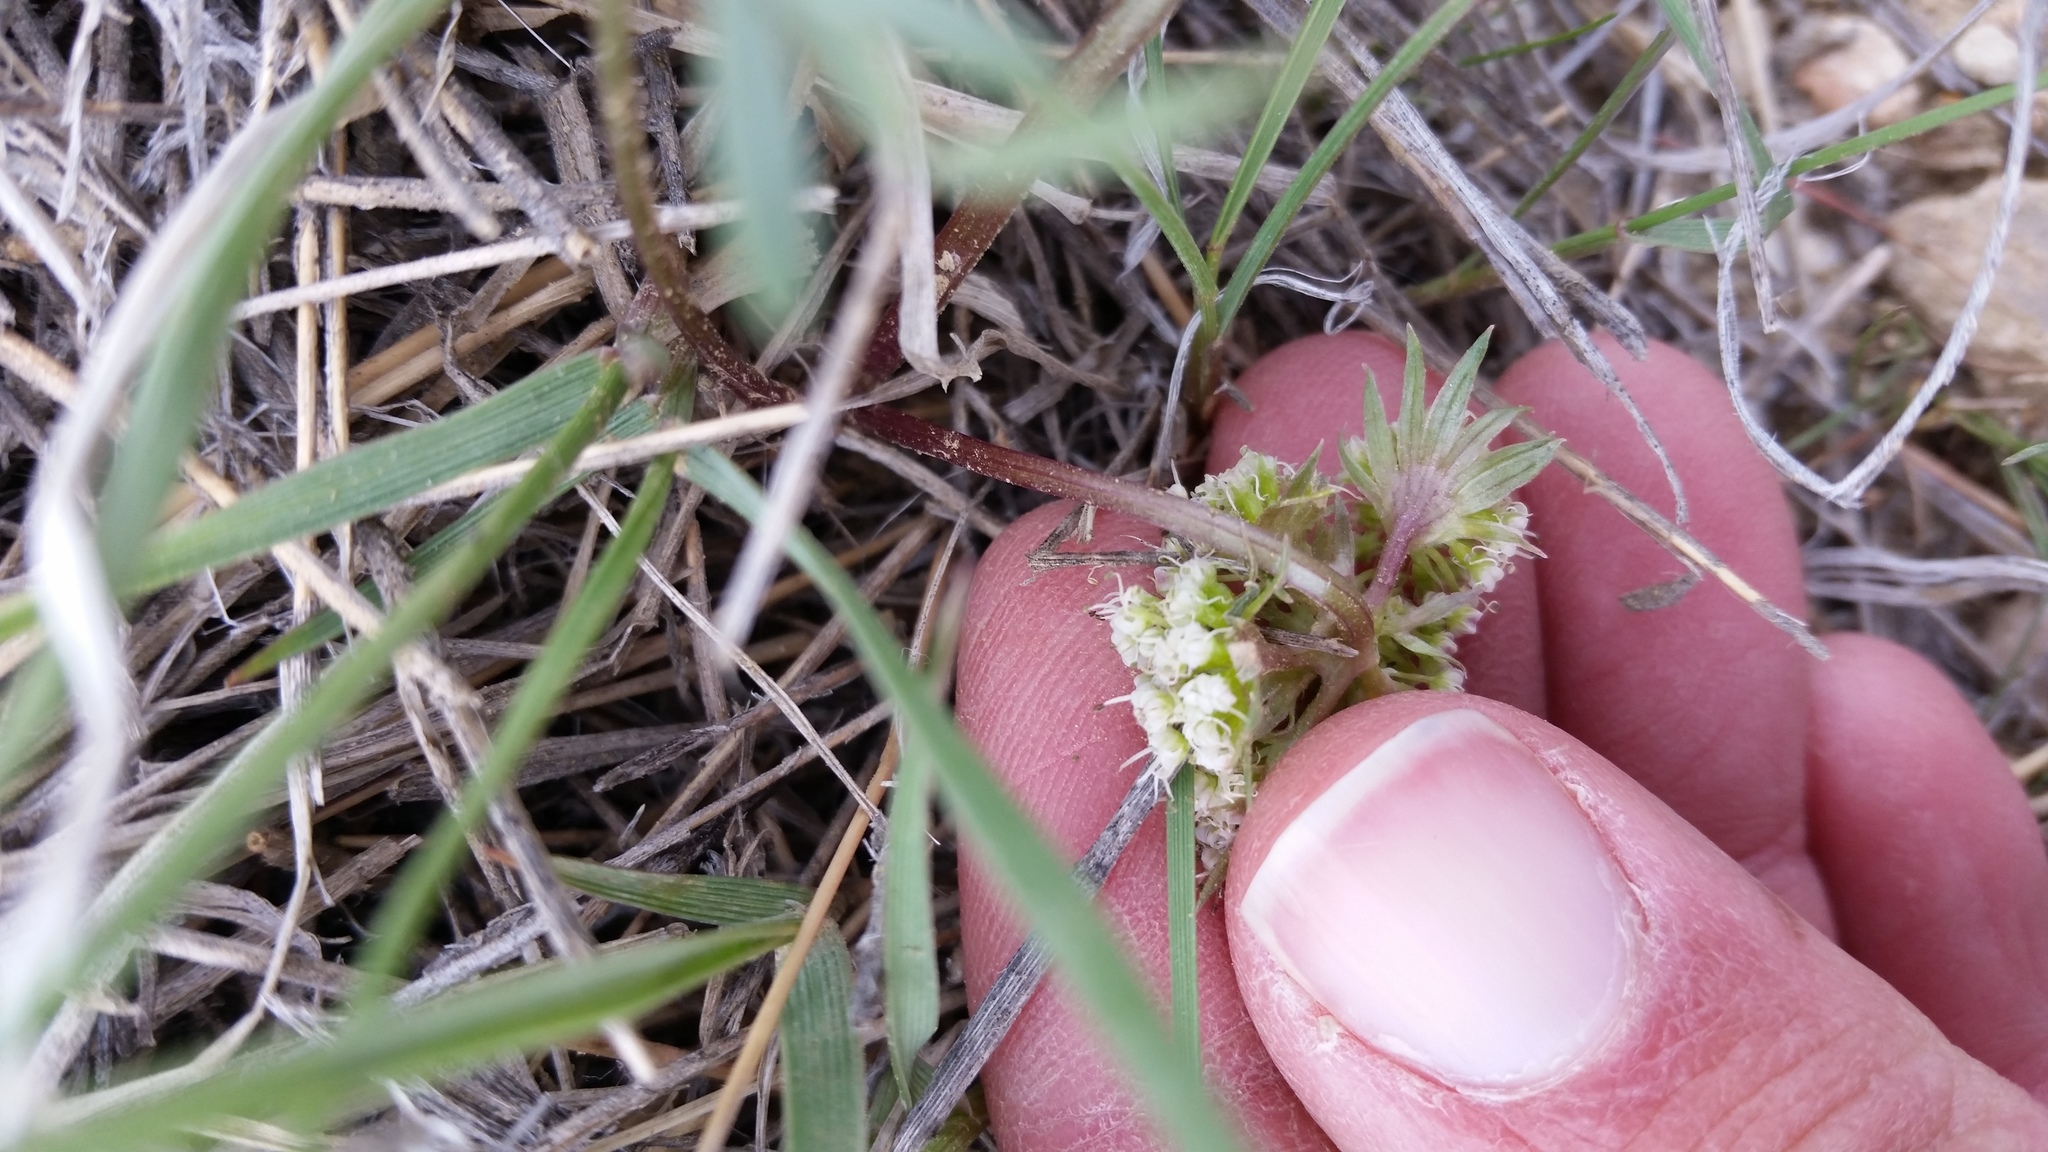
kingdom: Plantae
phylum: Tracheophyta
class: Magnoliopsida
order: Apiales
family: Apiaceae
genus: Lomatium
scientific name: Lomatium macrocarpum
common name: Big-seed biscuitroot
